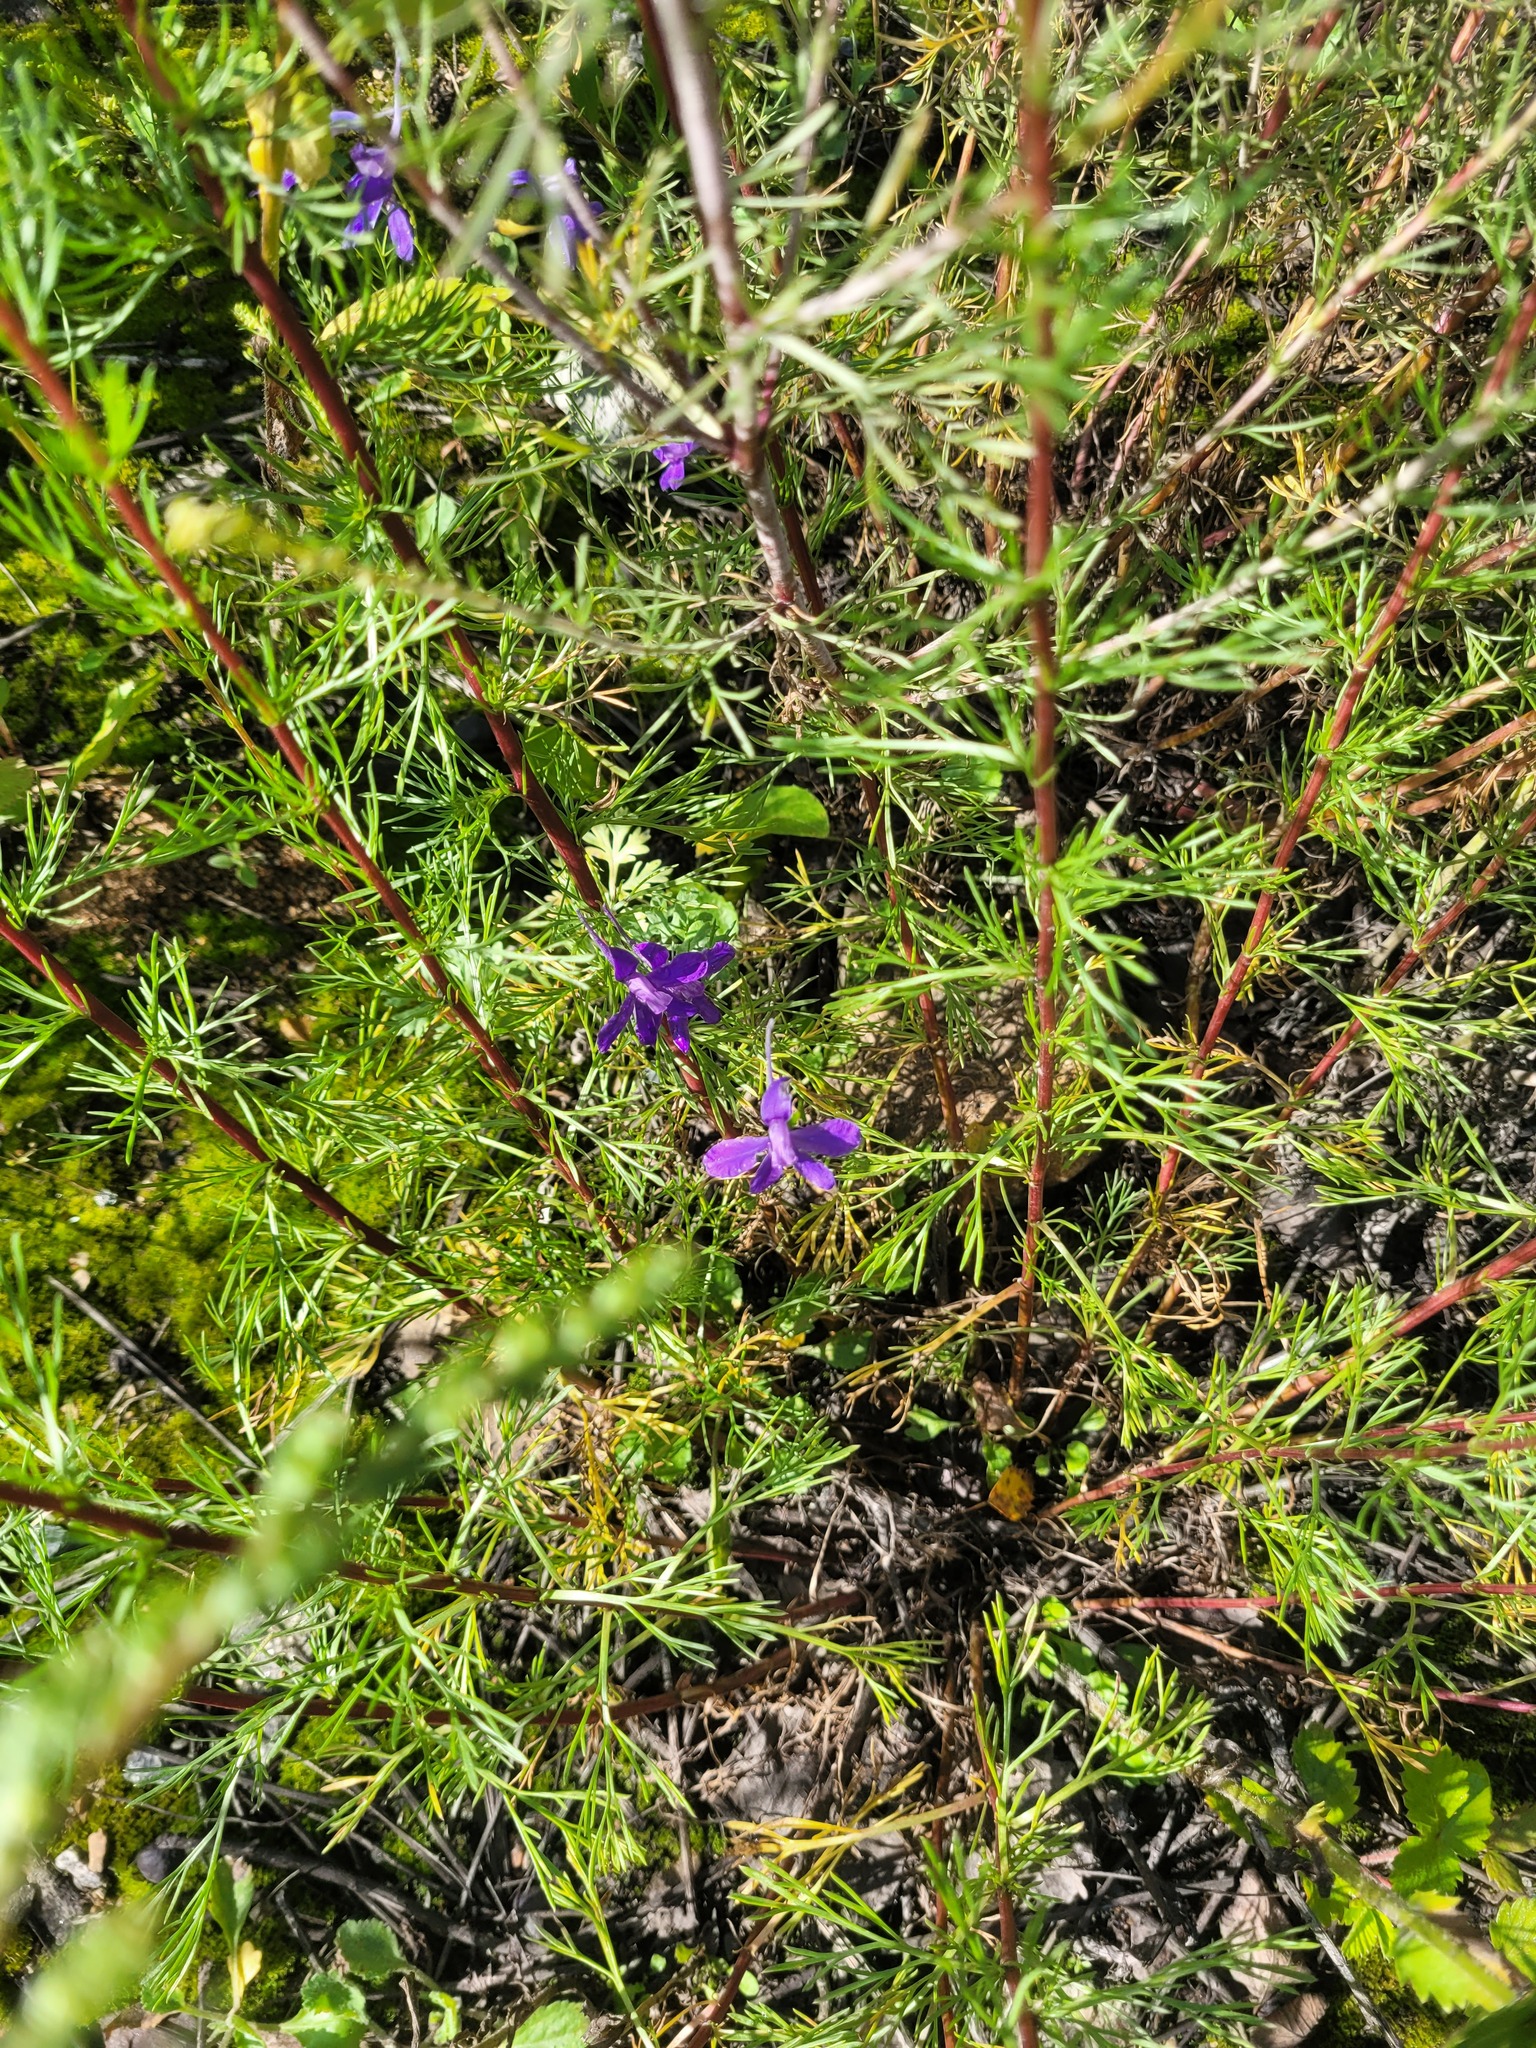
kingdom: Plantae
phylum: Tracheophyta
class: Magnoliopsida
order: Ranunculales
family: Ranunculaceae
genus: Delphinium
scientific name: Delphinium consolida
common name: Branching larkspur
